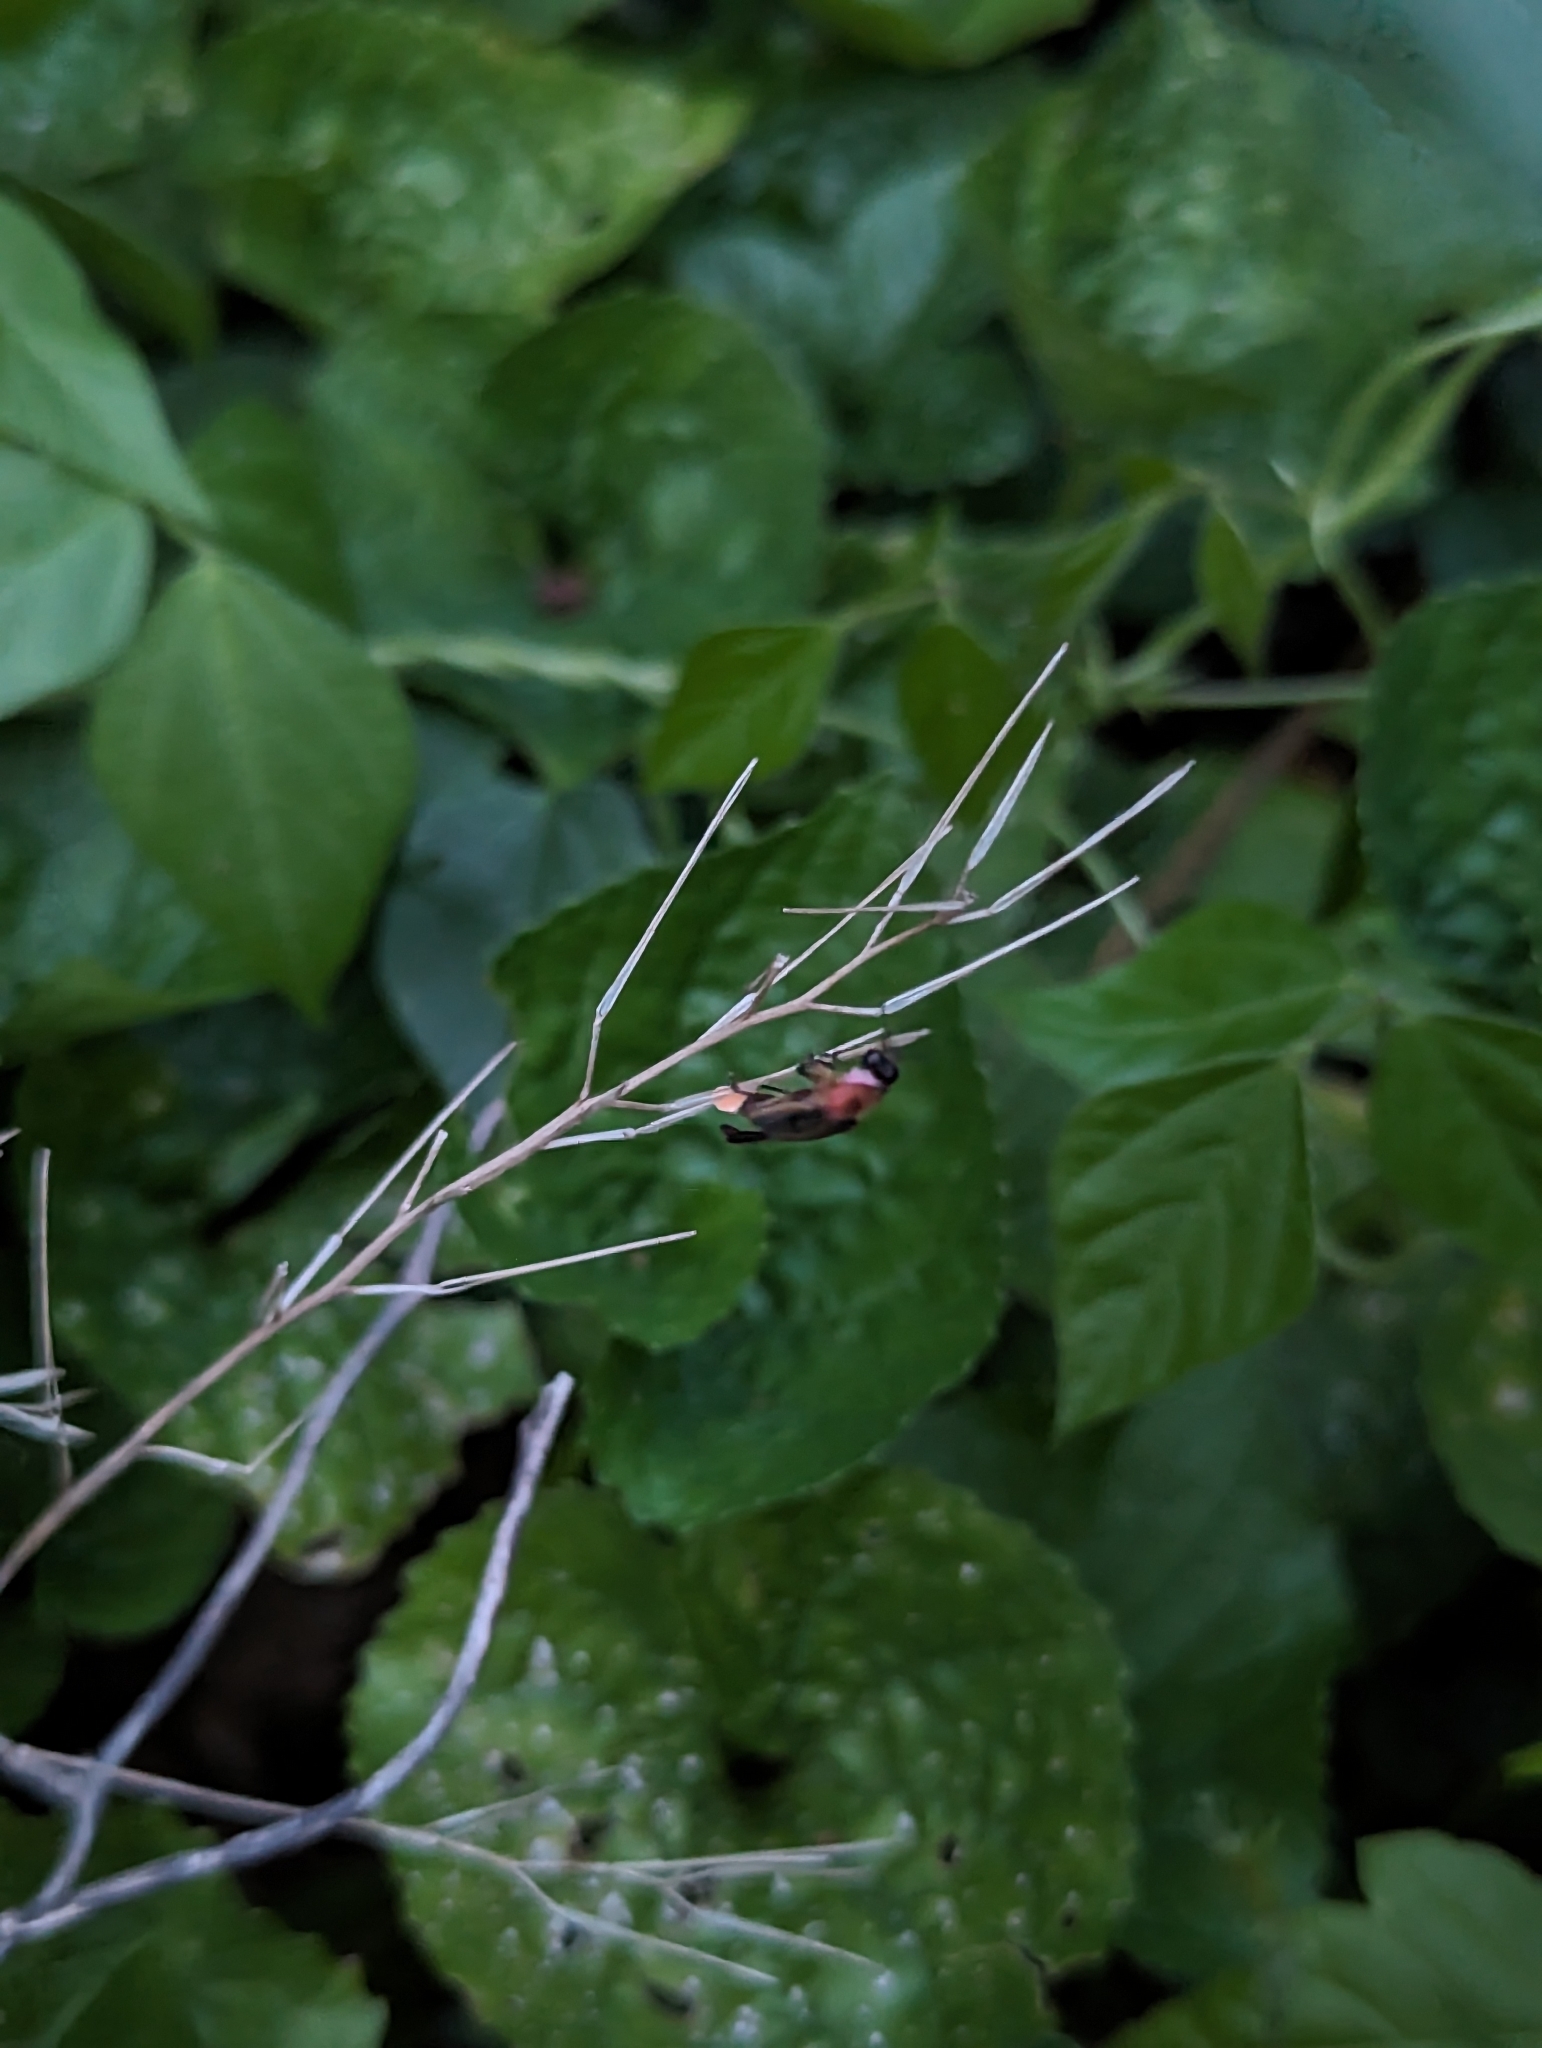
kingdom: Animalia
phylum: Arthropoda
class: Insecta
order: Coleoptera
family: Lampyridae
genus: Photinus
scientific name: Photinus pyralis
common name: Big dipper firefly
